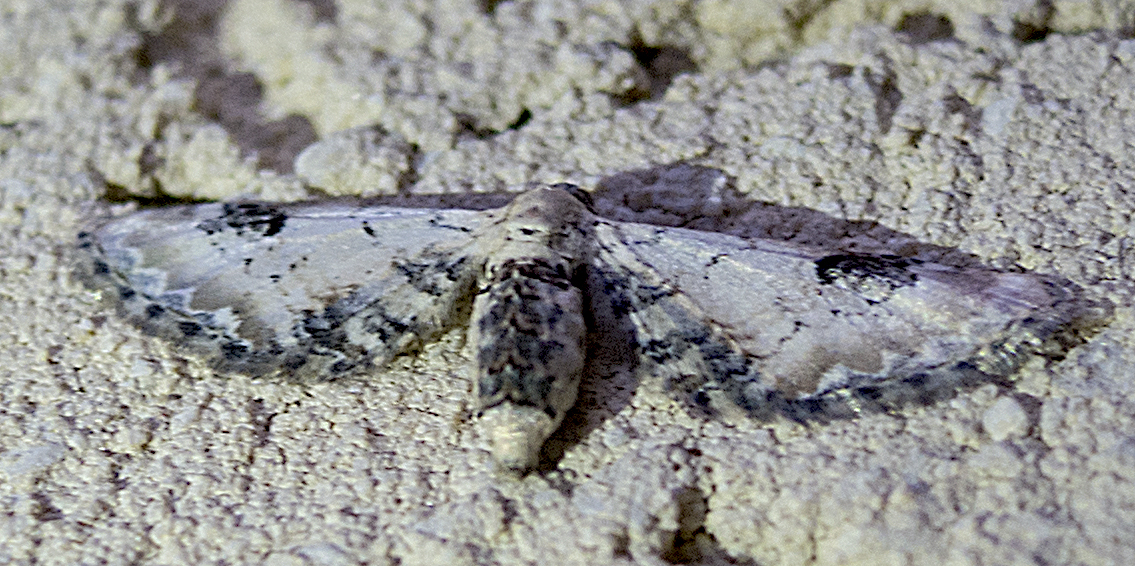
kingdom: Animalia
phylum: Arthropoda
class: Insecta
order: Lepidoptera
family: Geometridae
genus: Eupithecia
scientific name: Eupithecia centaureata
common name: Lime-speck pug
